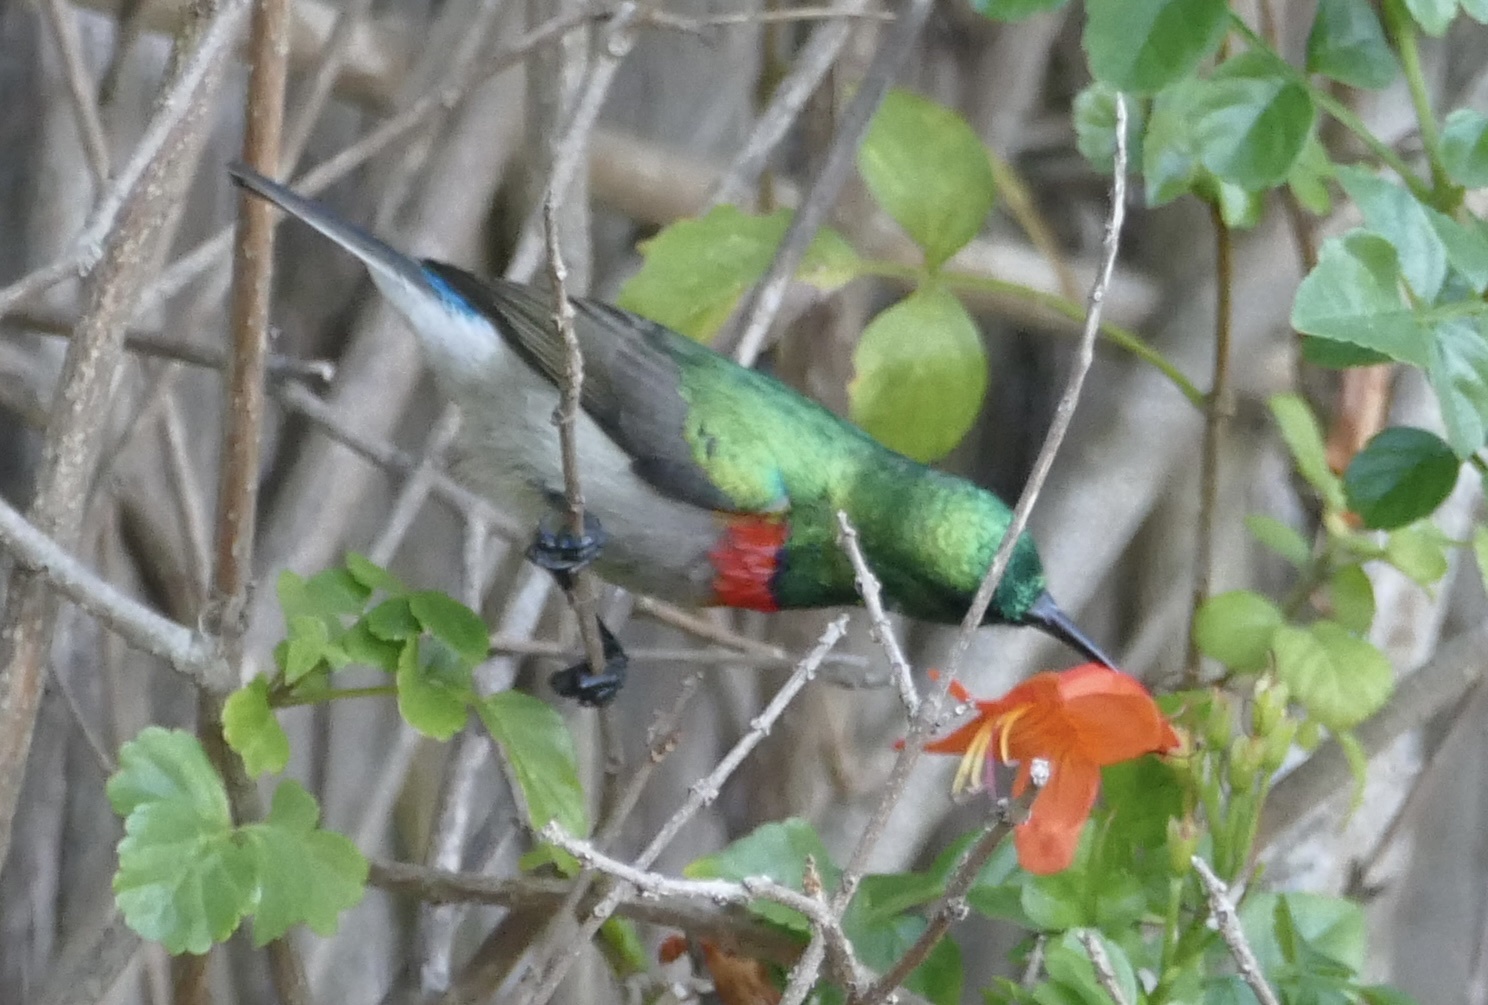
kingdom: Animalia
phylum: Chordata
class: Aves
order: Passeriformes
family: Nectariniidae
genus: Cinnyris
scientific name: Cinnyris chalybeus
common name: Southern double-collared sunbird
